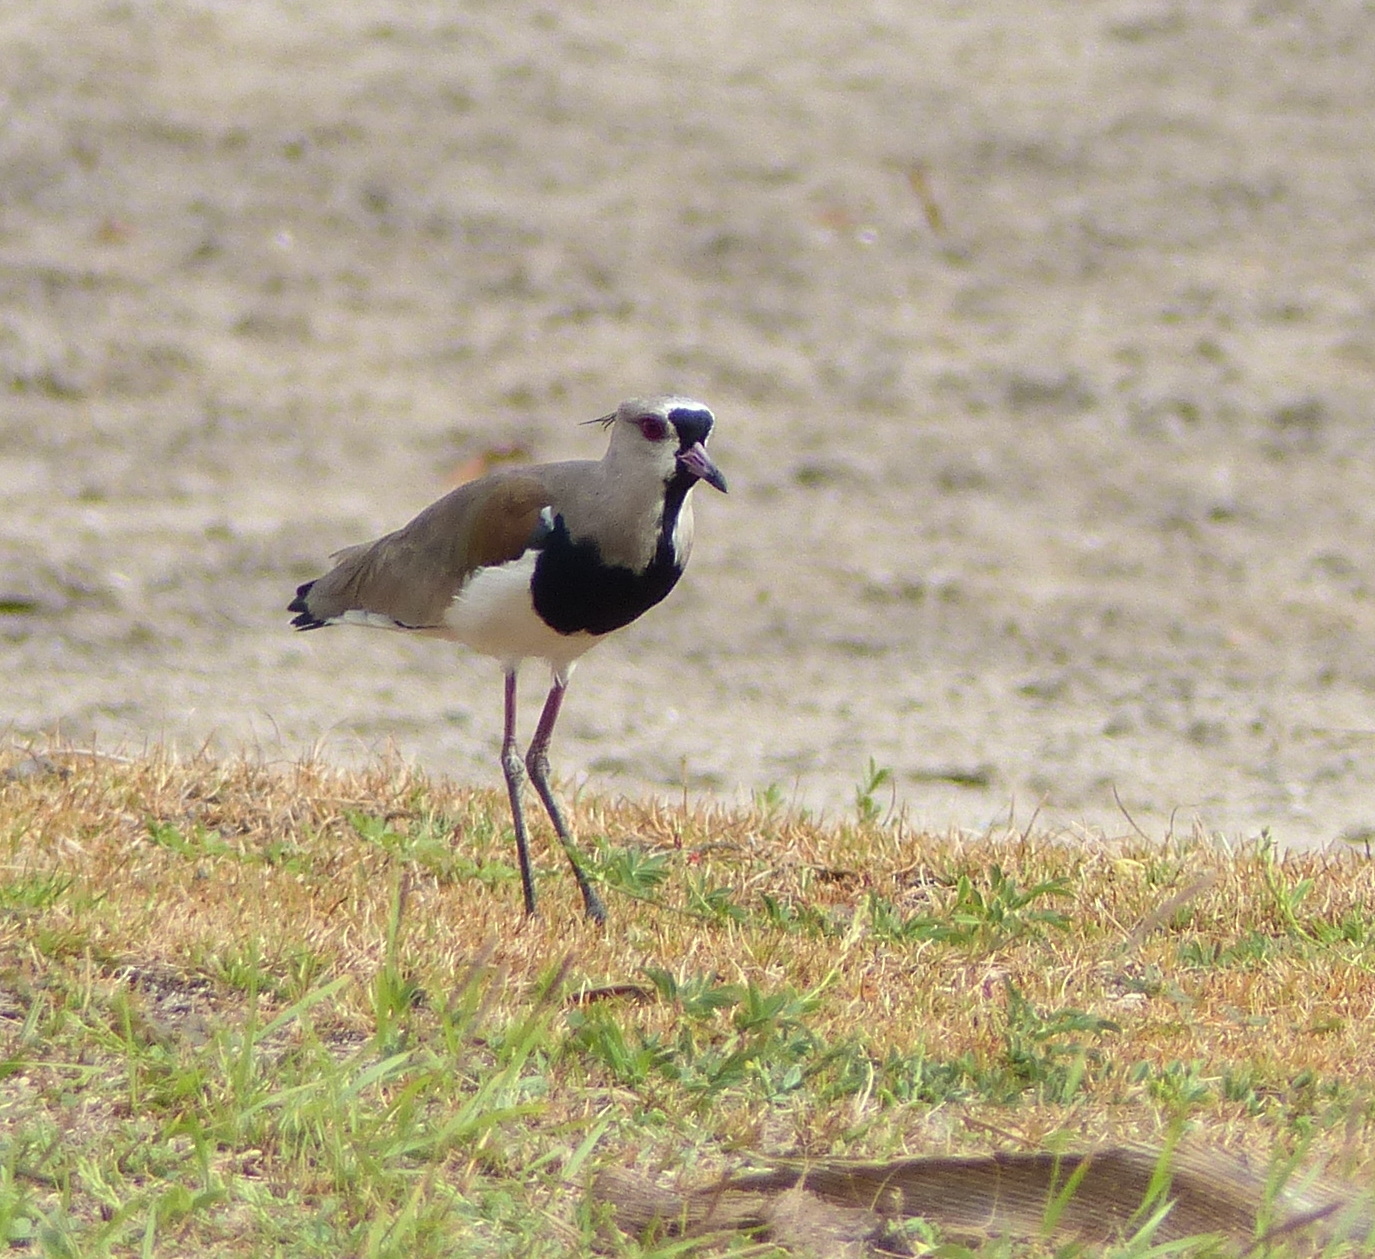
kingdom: Animalia
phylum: Chordata
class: Aves
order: Charadriiformes
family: Charadriidae
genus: Vanellus
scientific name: Vanellus chilensis
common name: Southern lapwing
